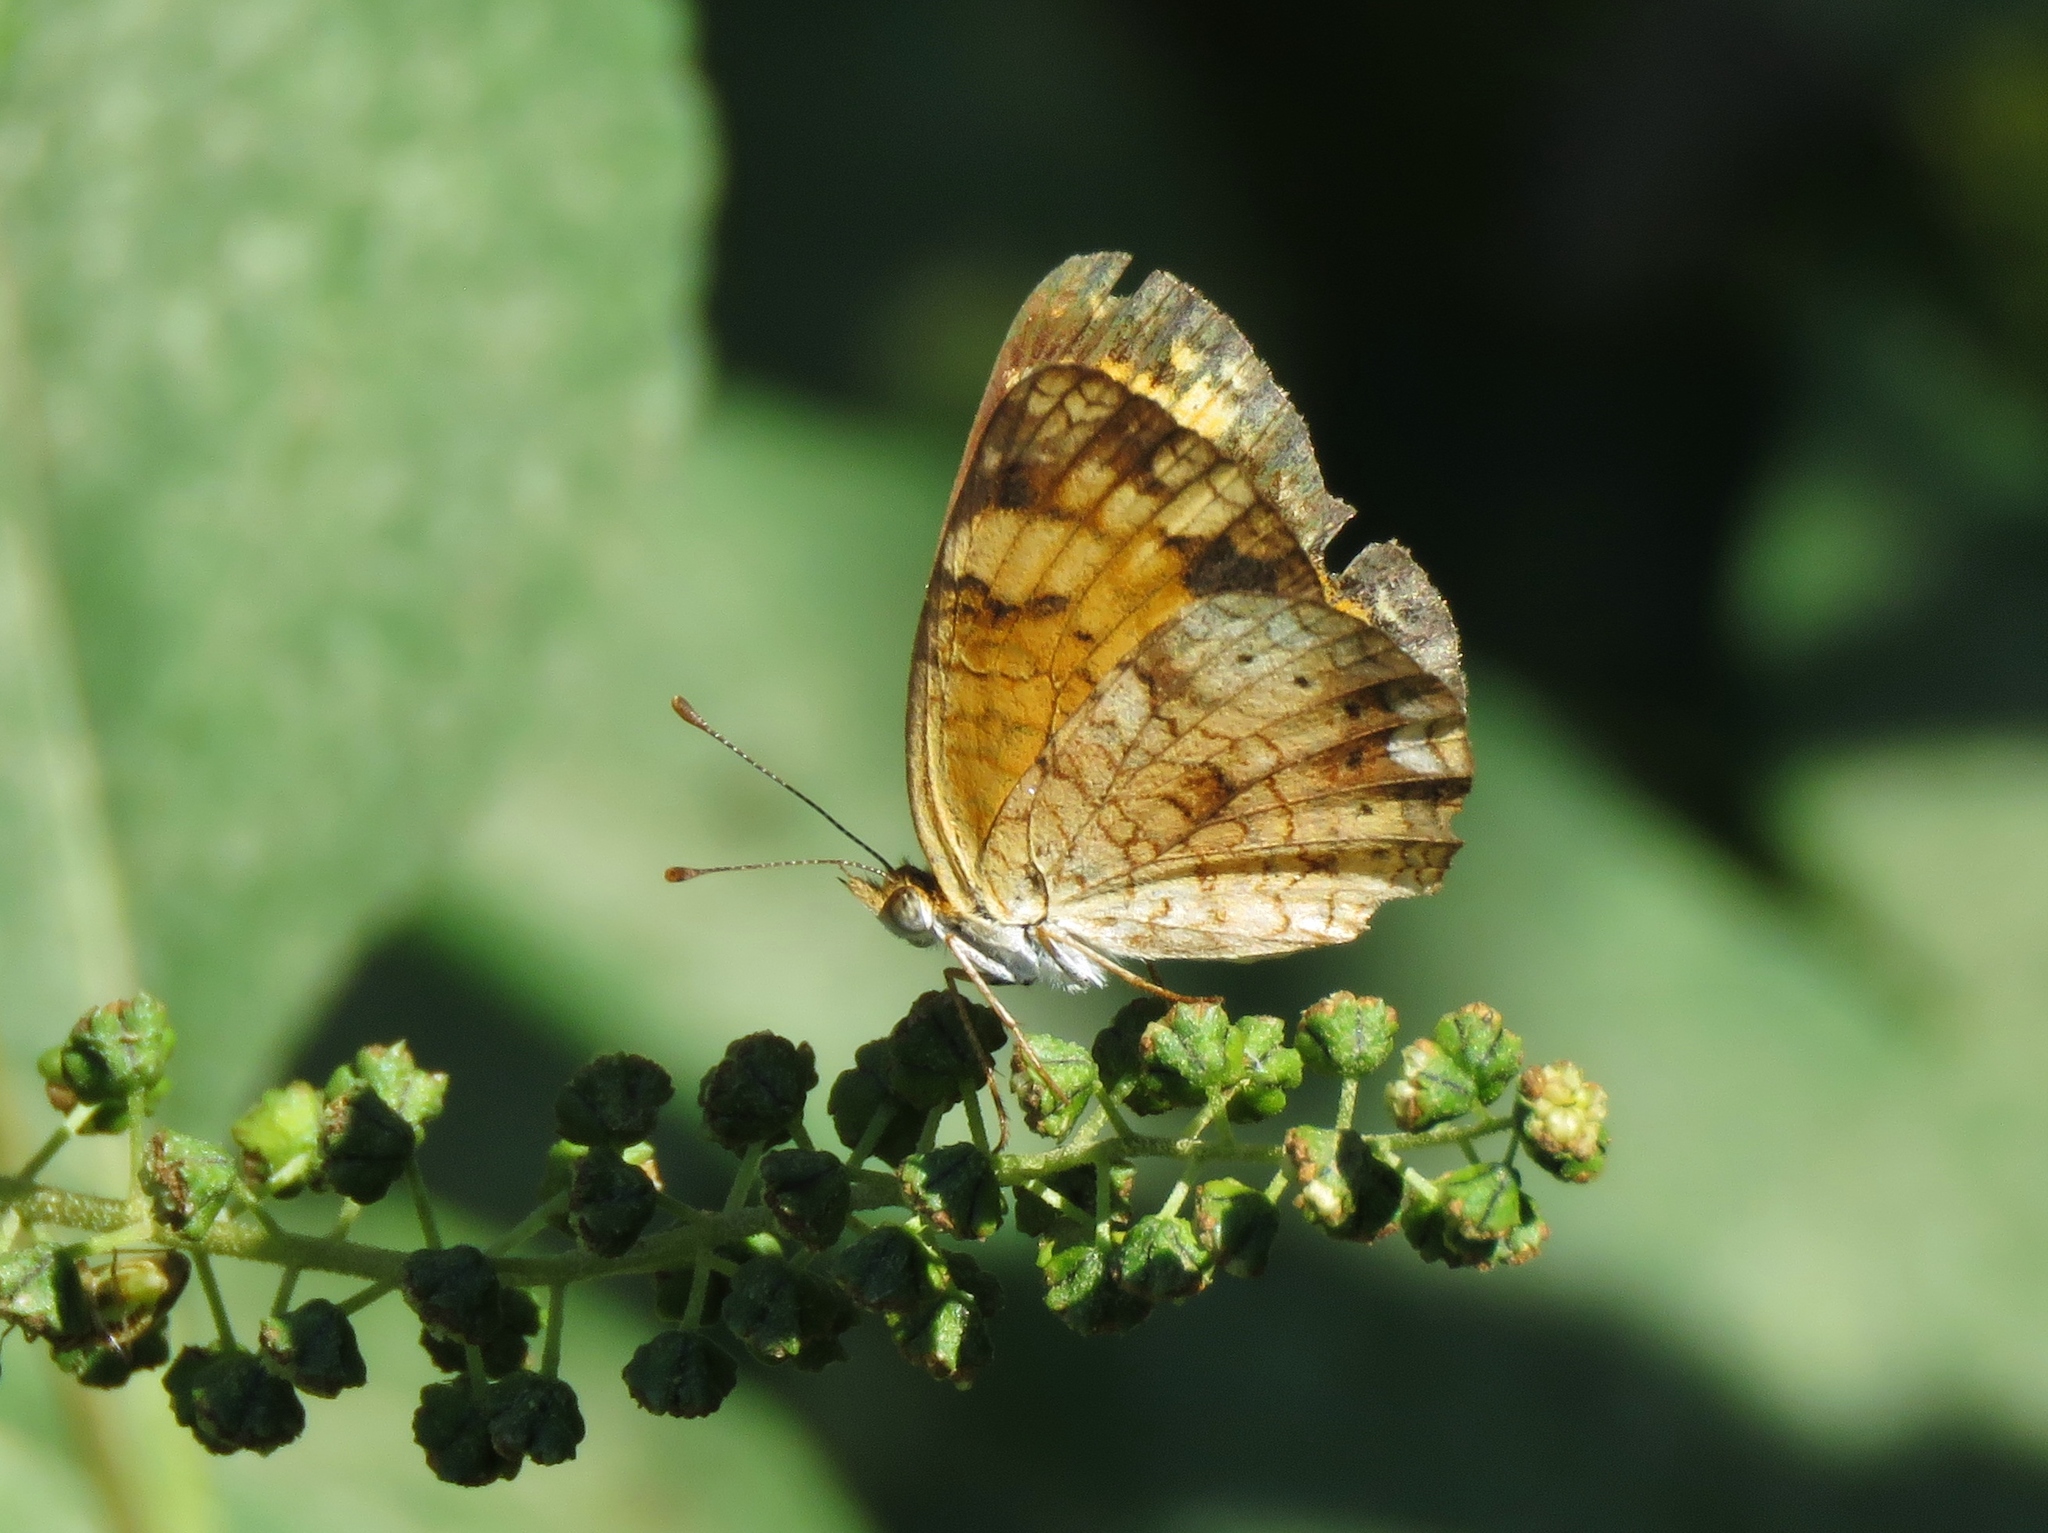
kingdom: Animalia
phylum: Arthropoda
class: Insecta
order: Lepidoptera
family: Nymphalidae
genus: Phyciodes
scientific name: Phyciodes tharos
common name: Pearl crescent
